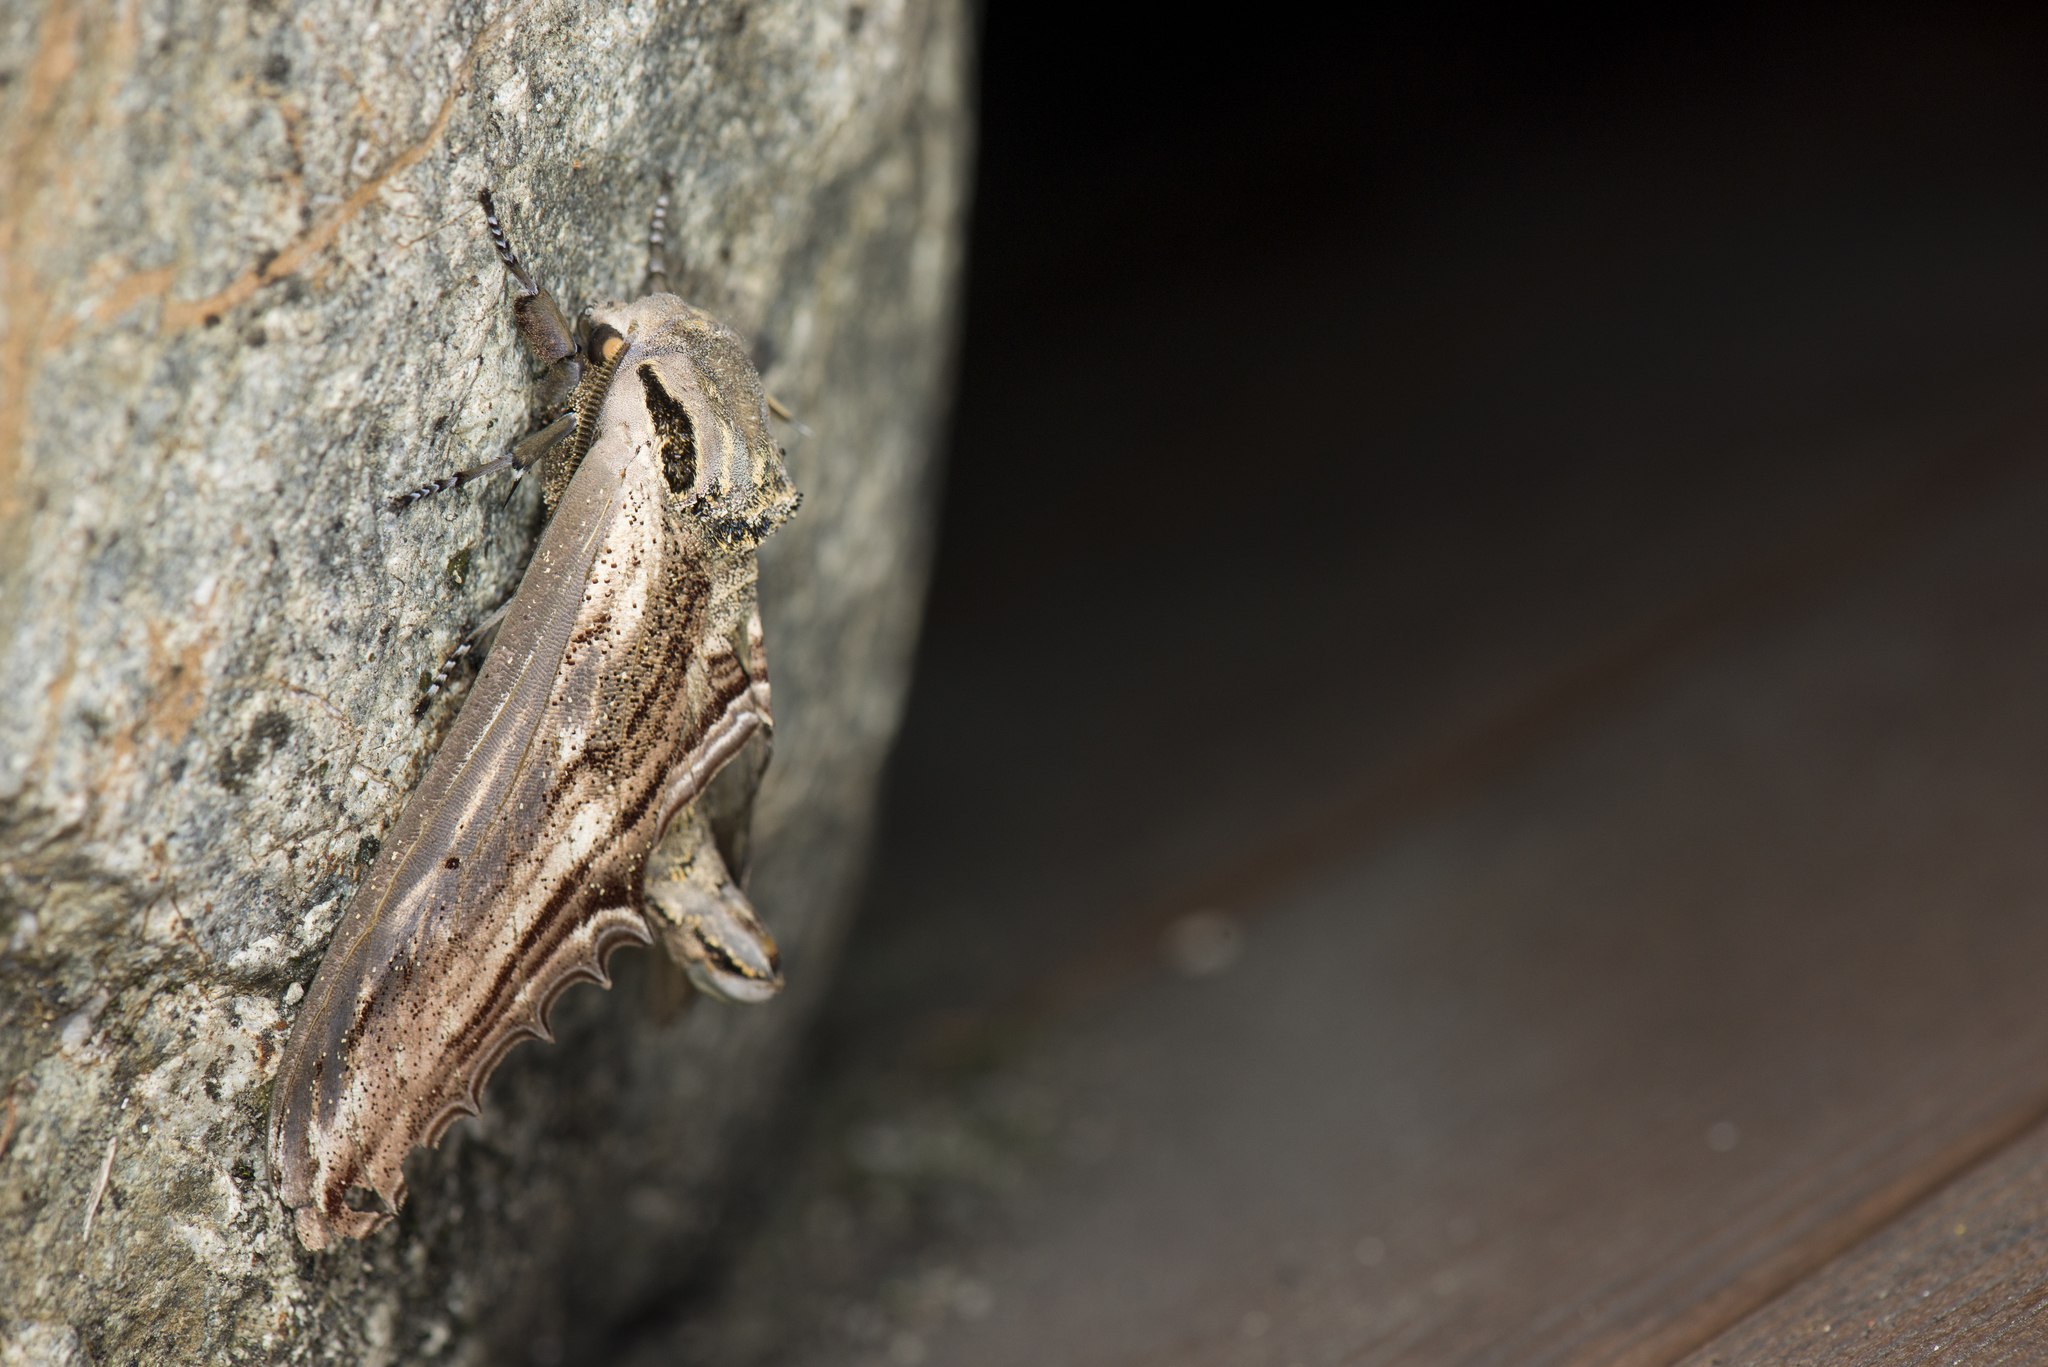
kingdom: Animalia
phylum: Arthropoda
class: Insecta
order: Lepidoptera
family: Sphingidae
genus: Langia
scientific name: Langia zenzeroides
